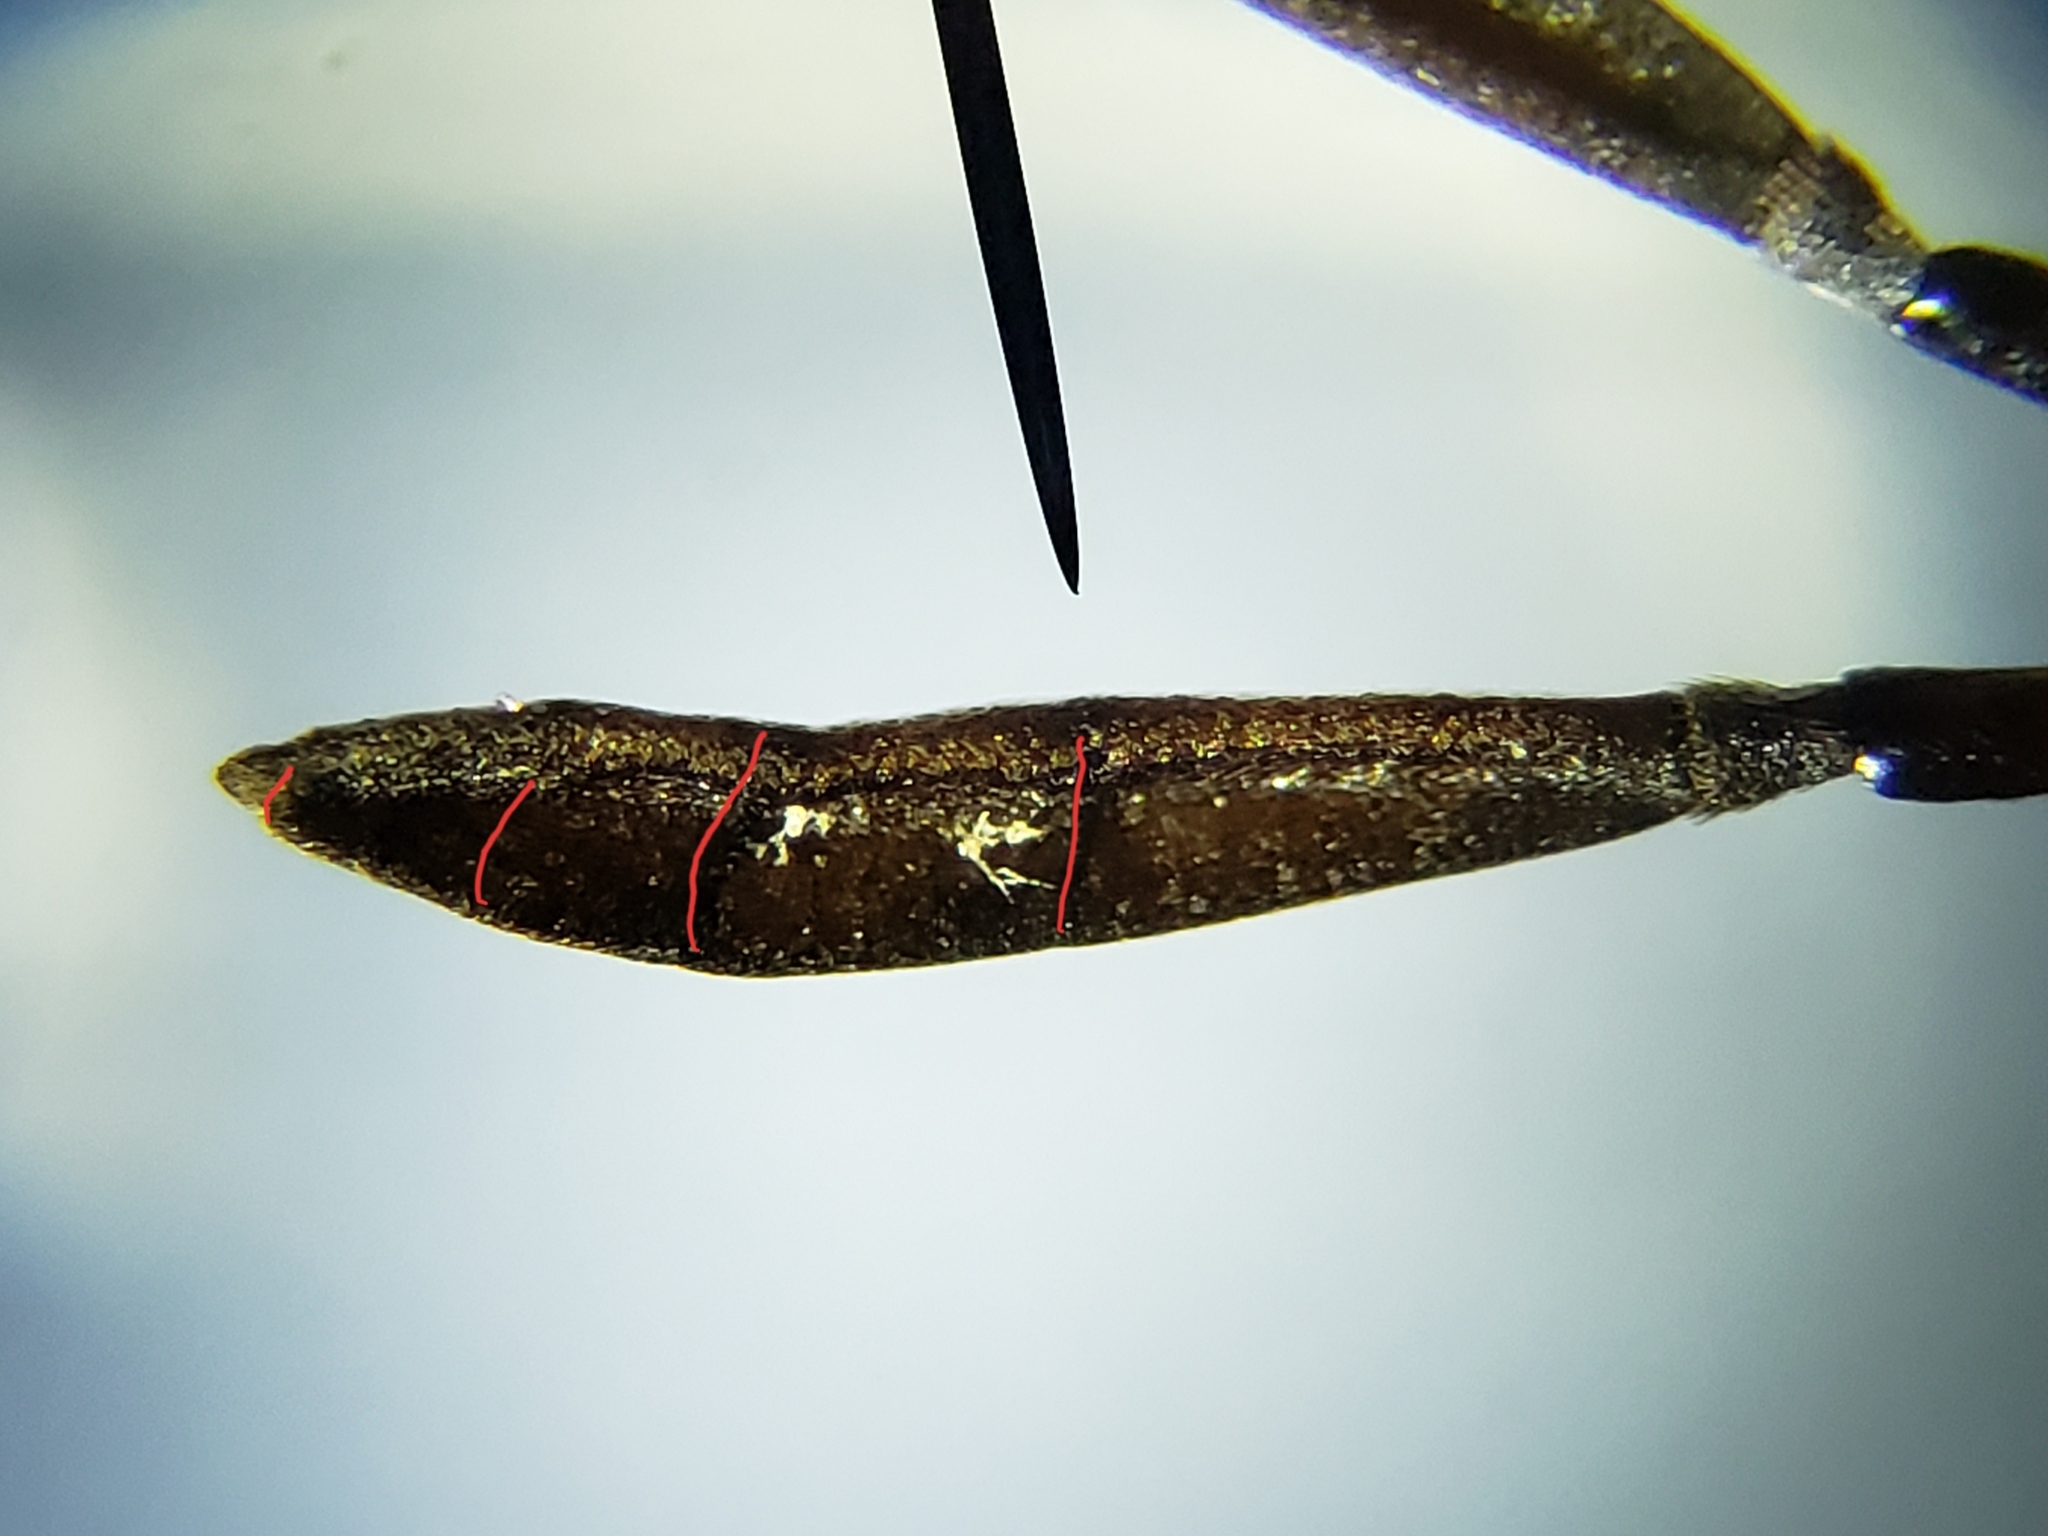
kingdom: Animalia
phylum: Arthropoda
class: Insecta
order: Diptera
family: Stratiomyidae
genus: Hoplitimyia
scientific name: Hoplitimyia mutabilis
